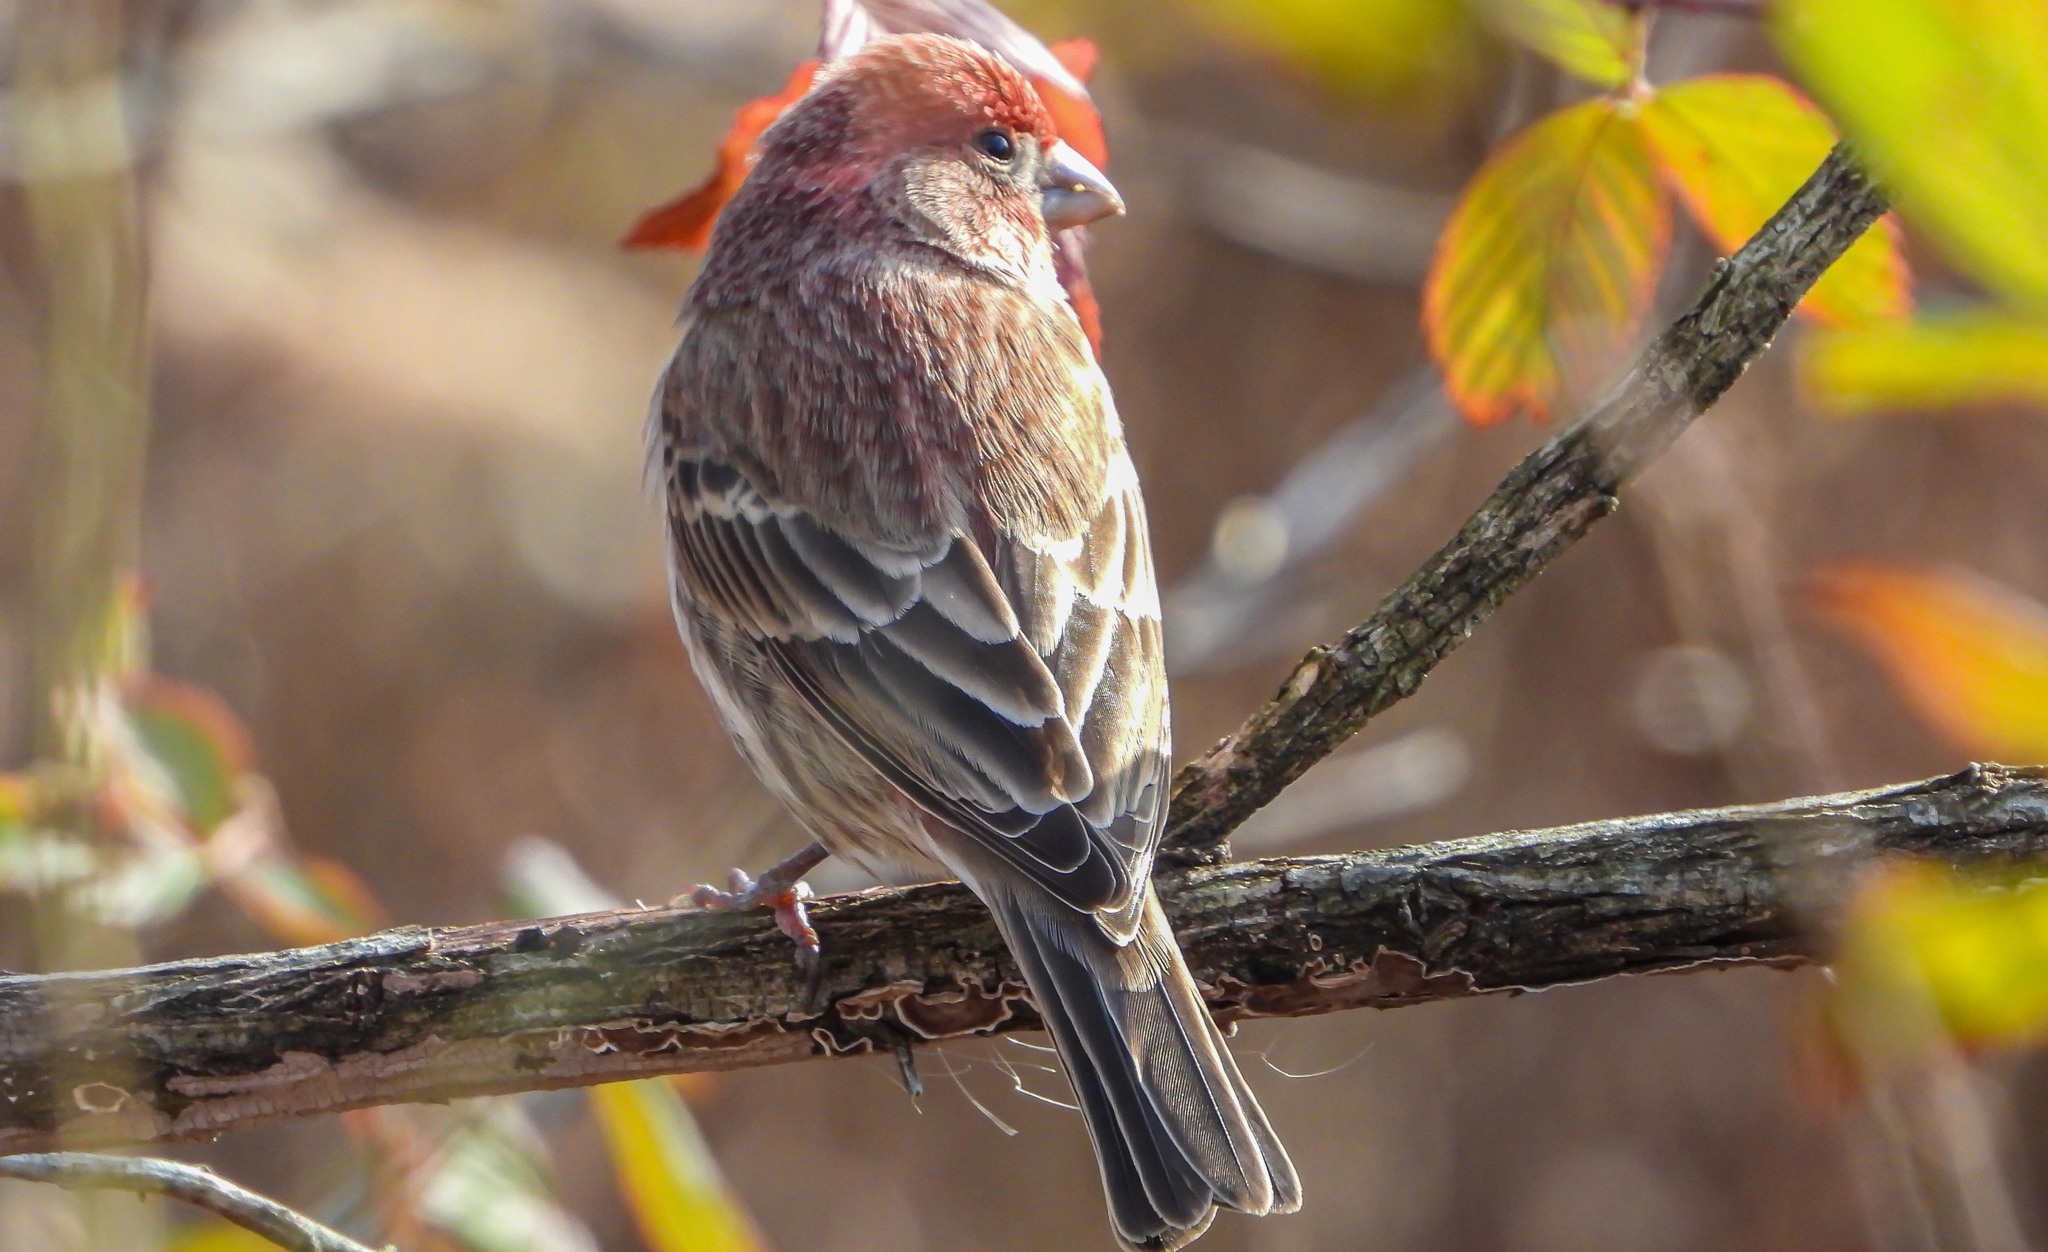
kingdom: Animalia
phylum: Chordata
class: Aves
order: Passeriformes
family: Fringillidae
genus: Haemorhous
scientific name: Haemorhous mexicanus
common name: House finch
